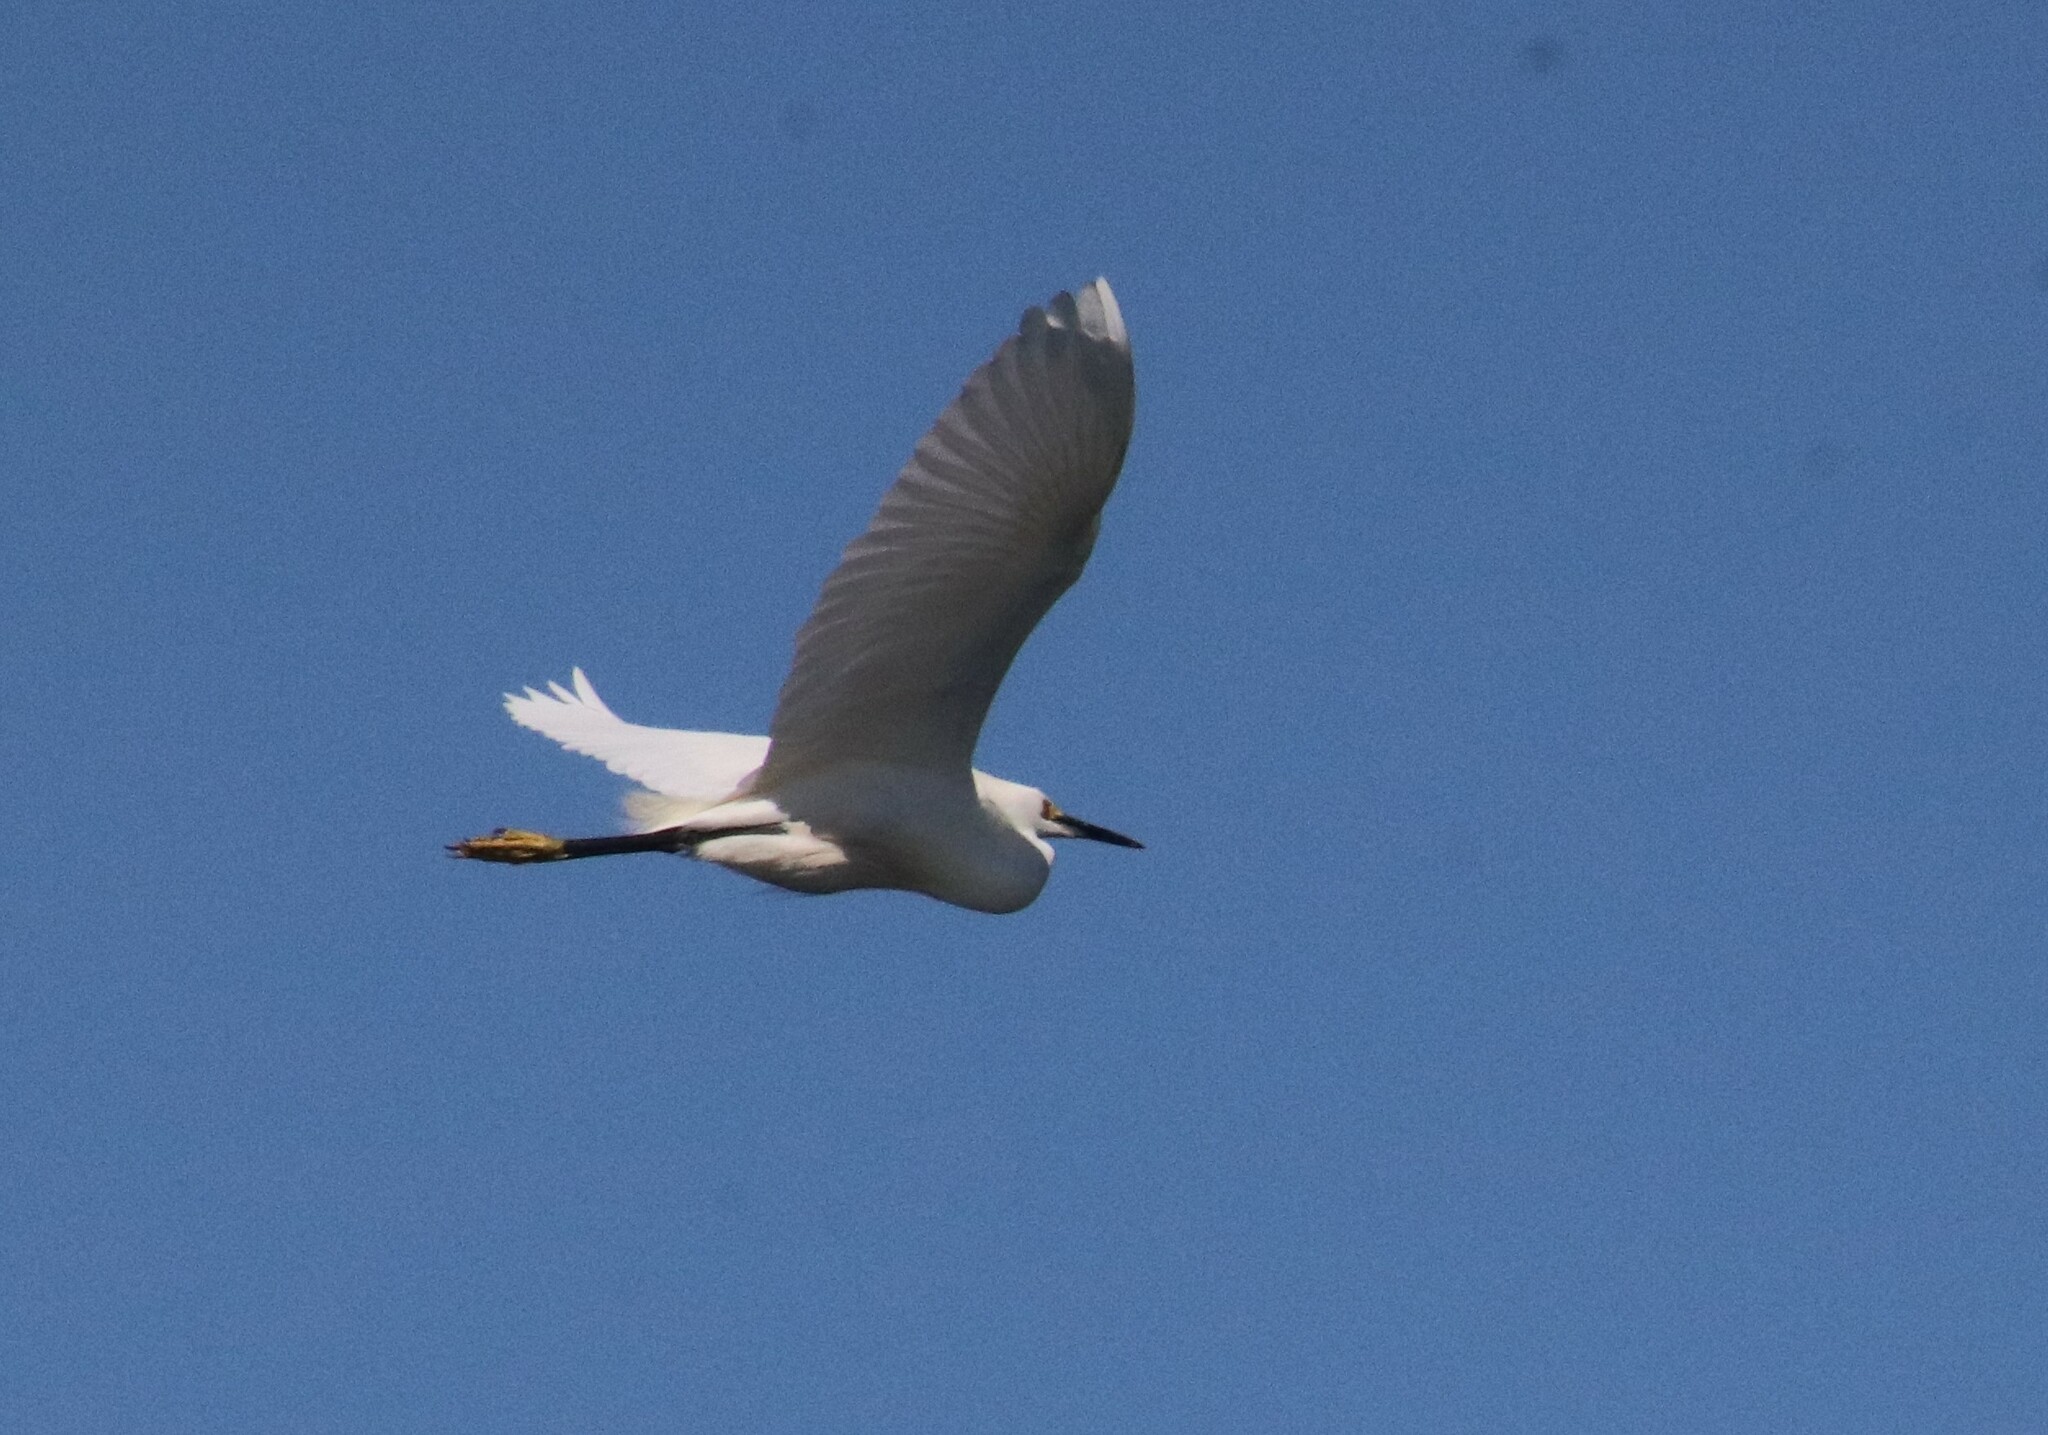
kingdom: Animalia
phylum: Chordata
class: Aves
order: Pelecaniformes
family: Ardeidae
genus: Egretta
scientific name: Egretta thula
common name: Snowy egret
